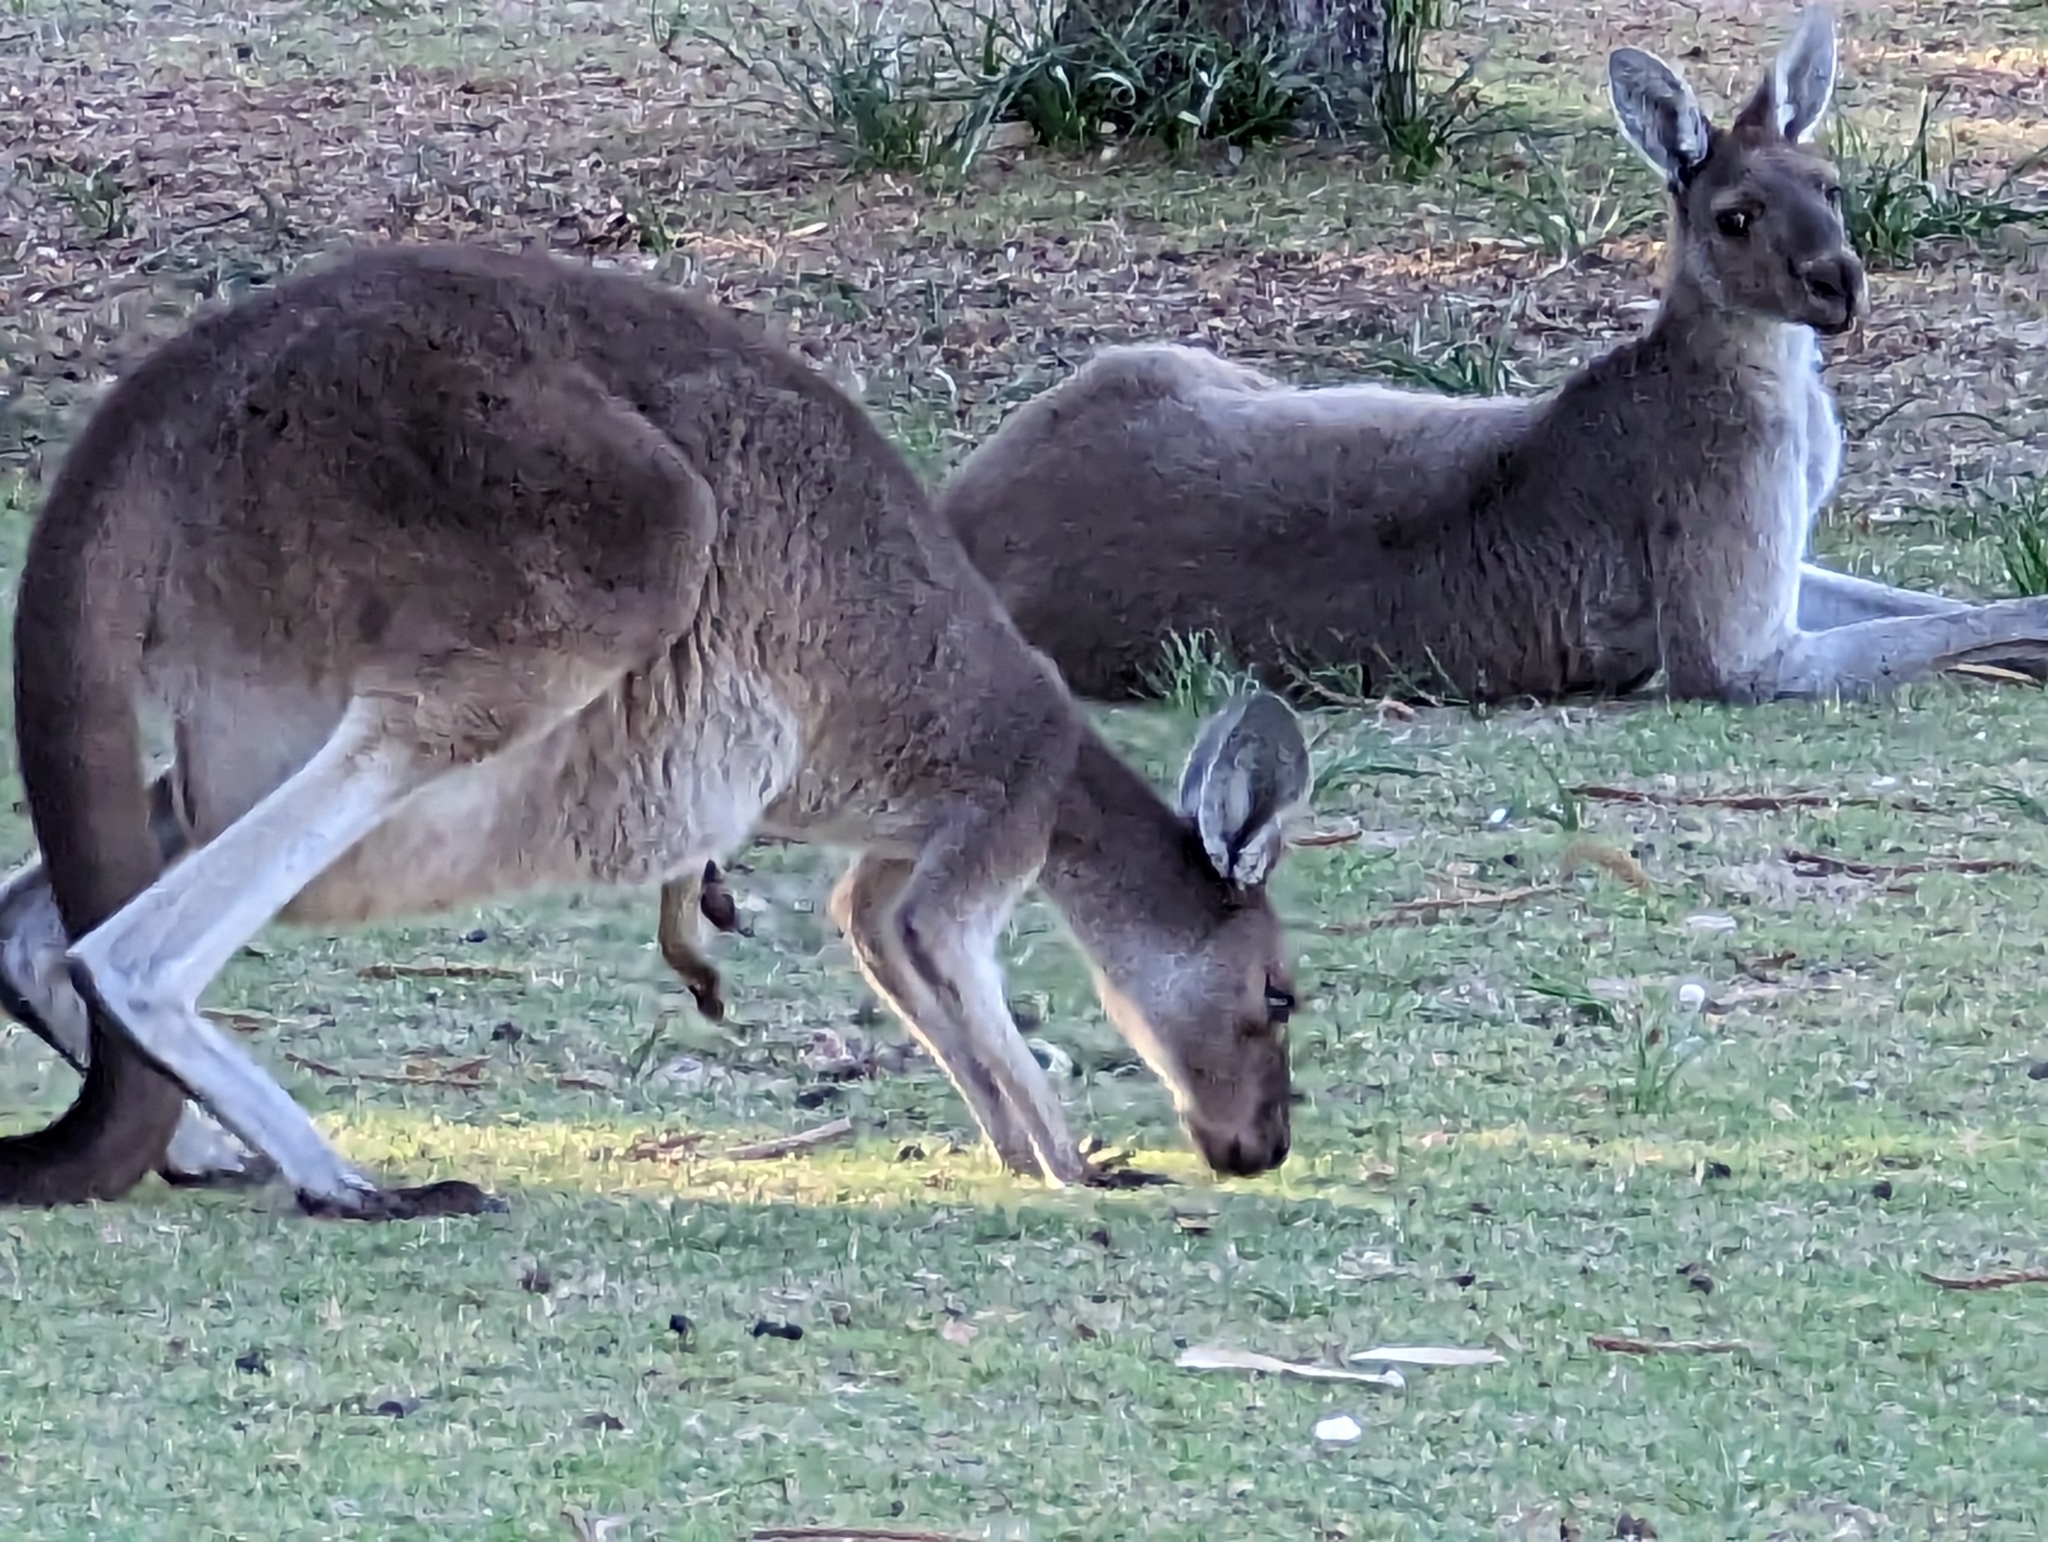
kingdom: Animalia
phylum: Chordata
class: Mammalia
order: Diprotodontia
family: Macropodidae
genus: Macropus
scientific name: Macropus fuliginosus
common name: Western grey kangaroo
